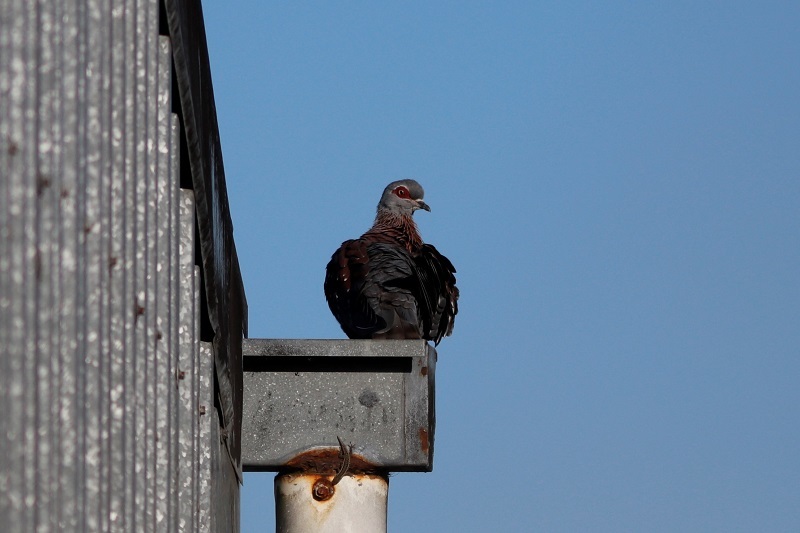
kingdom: Animalia
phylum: Chordata
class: Aves
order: Columbiformes
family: Columbidae
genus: Columba
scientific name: Columba guinea
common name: Speckled pigeon
